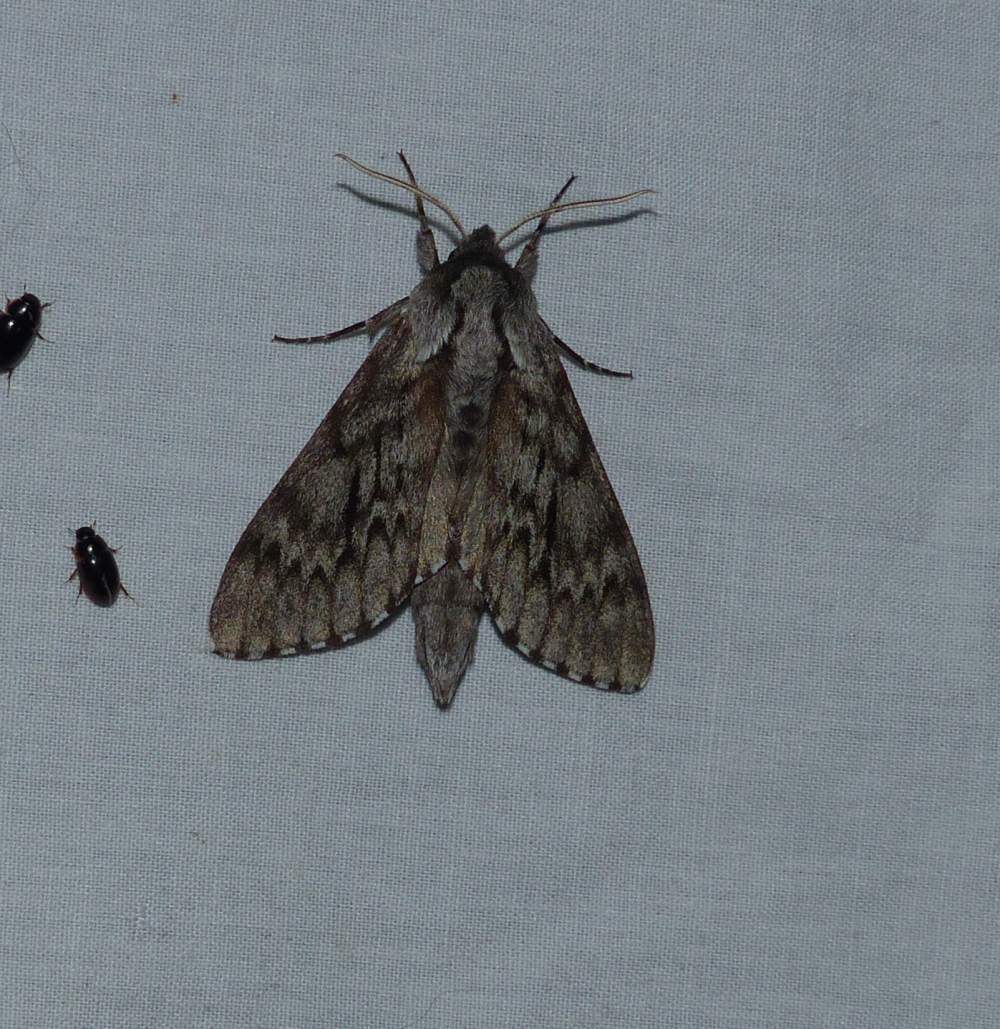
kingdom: Animalia
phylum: Arthropoda
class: Insecta
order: Lepidoptera
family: Sphingidae
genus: Lapara
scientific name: Lapara bombycoides
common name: Northern pine sphinx
